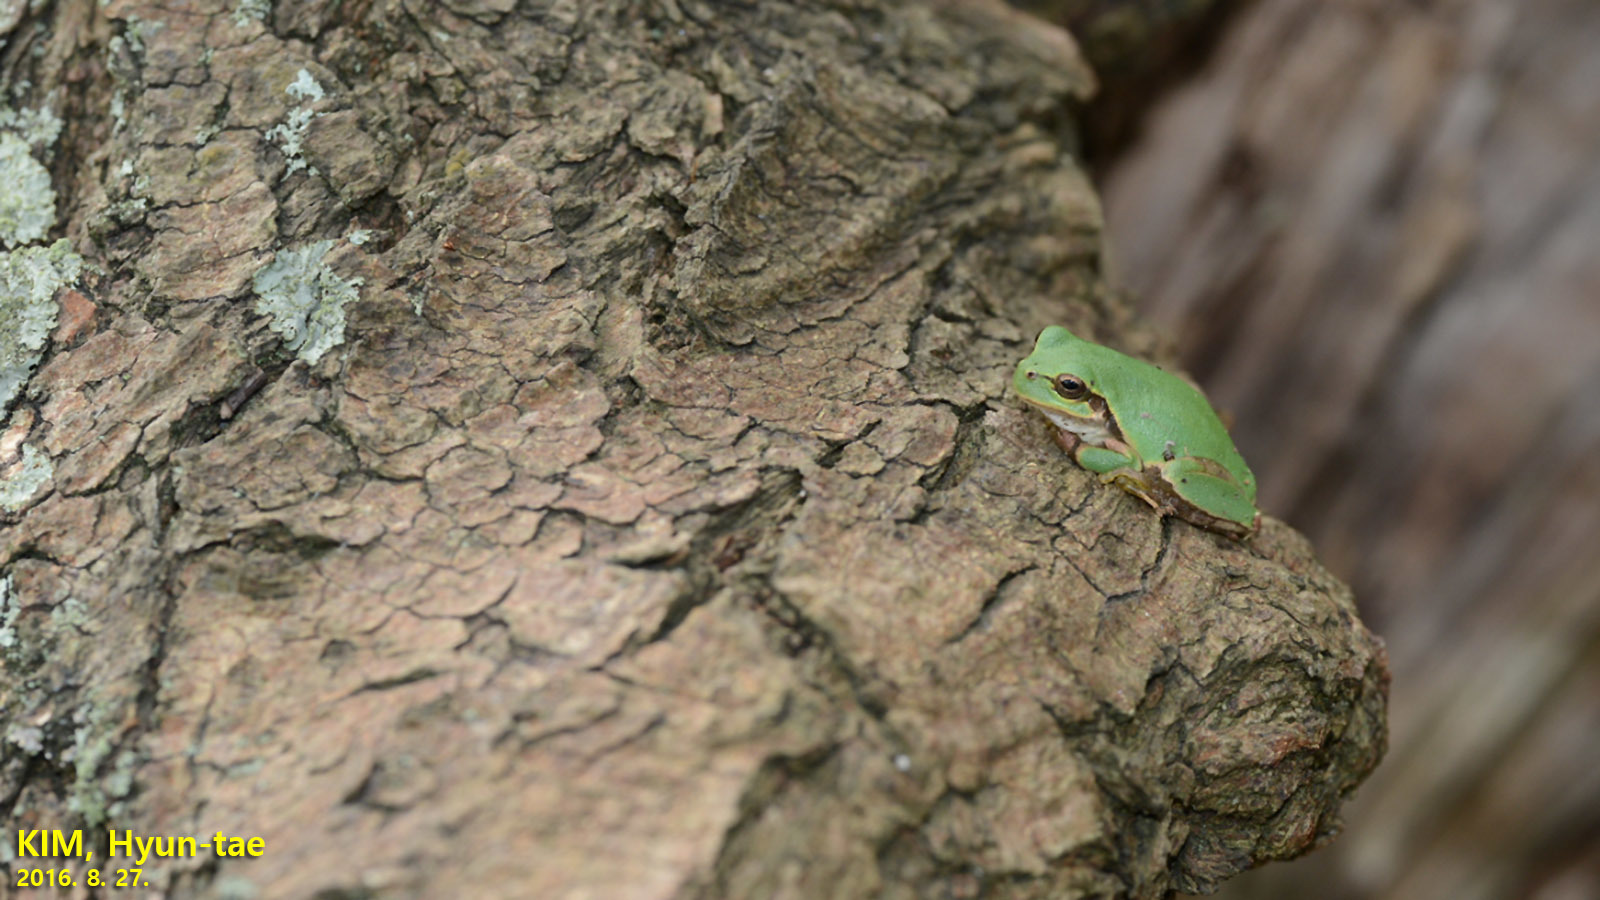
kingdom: Animalia
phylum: Chordata
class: Amphibia
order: Anura
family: Hylidae
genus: Dryophytes
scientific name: Dryophytes japonicus
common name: Japanese treefrog
